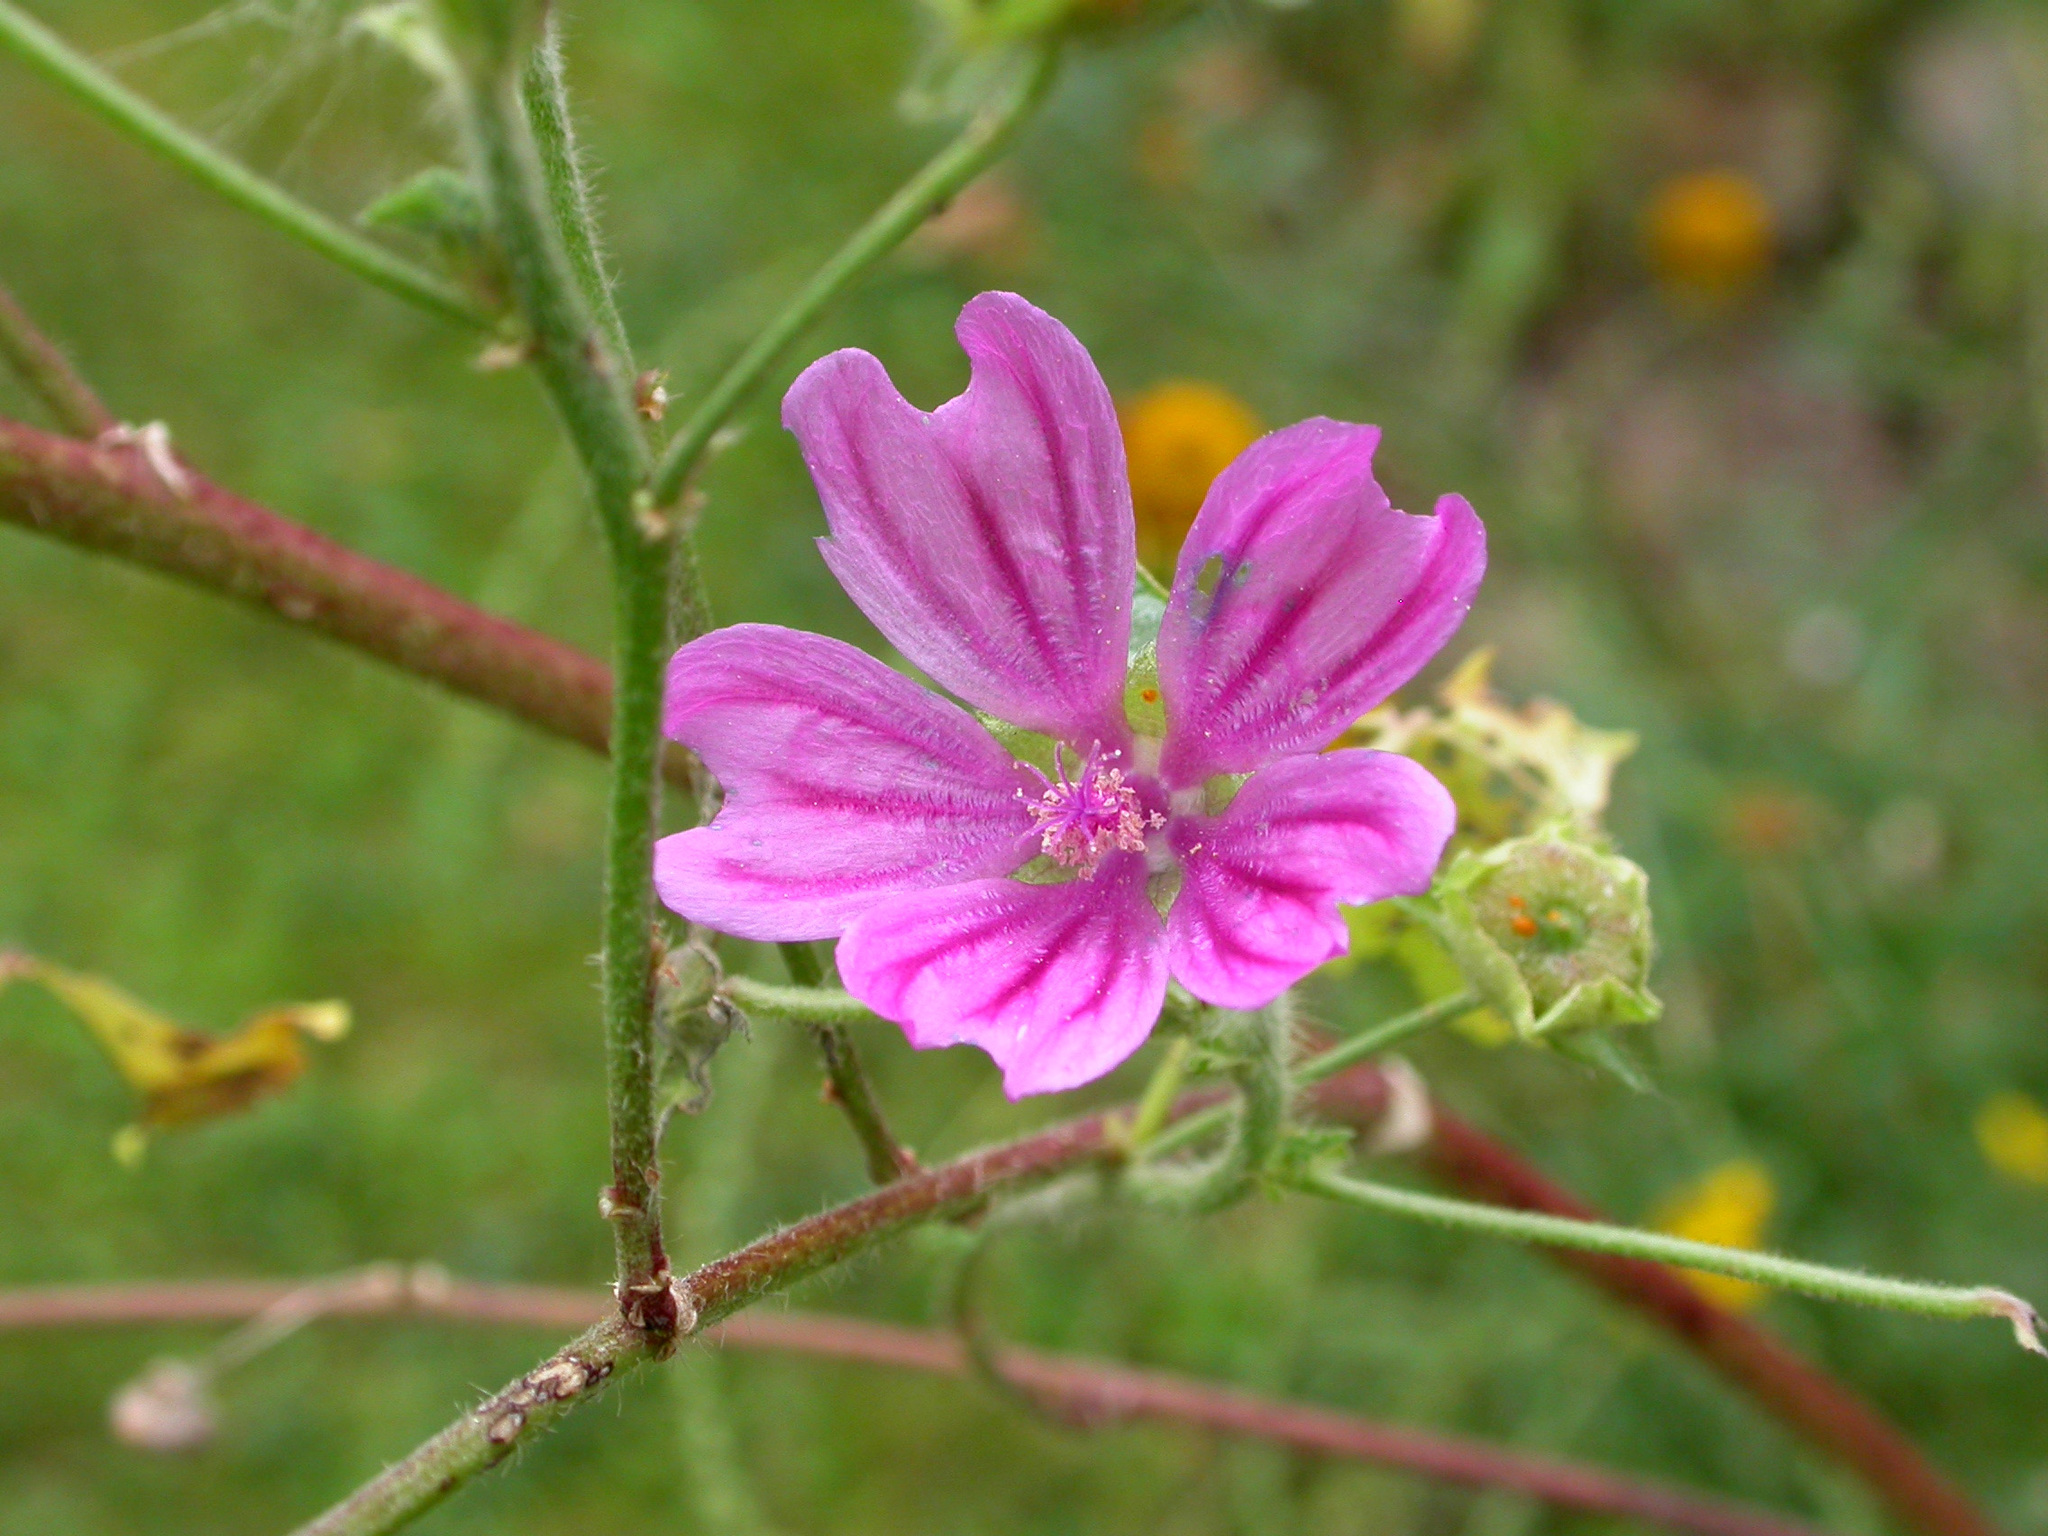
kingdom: Plantae
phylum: Tracheophyta
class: Magnoliopsida
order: Malvales
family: Malvaceae
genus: Malva
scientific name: Malva sylvestris
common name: Common mallow
